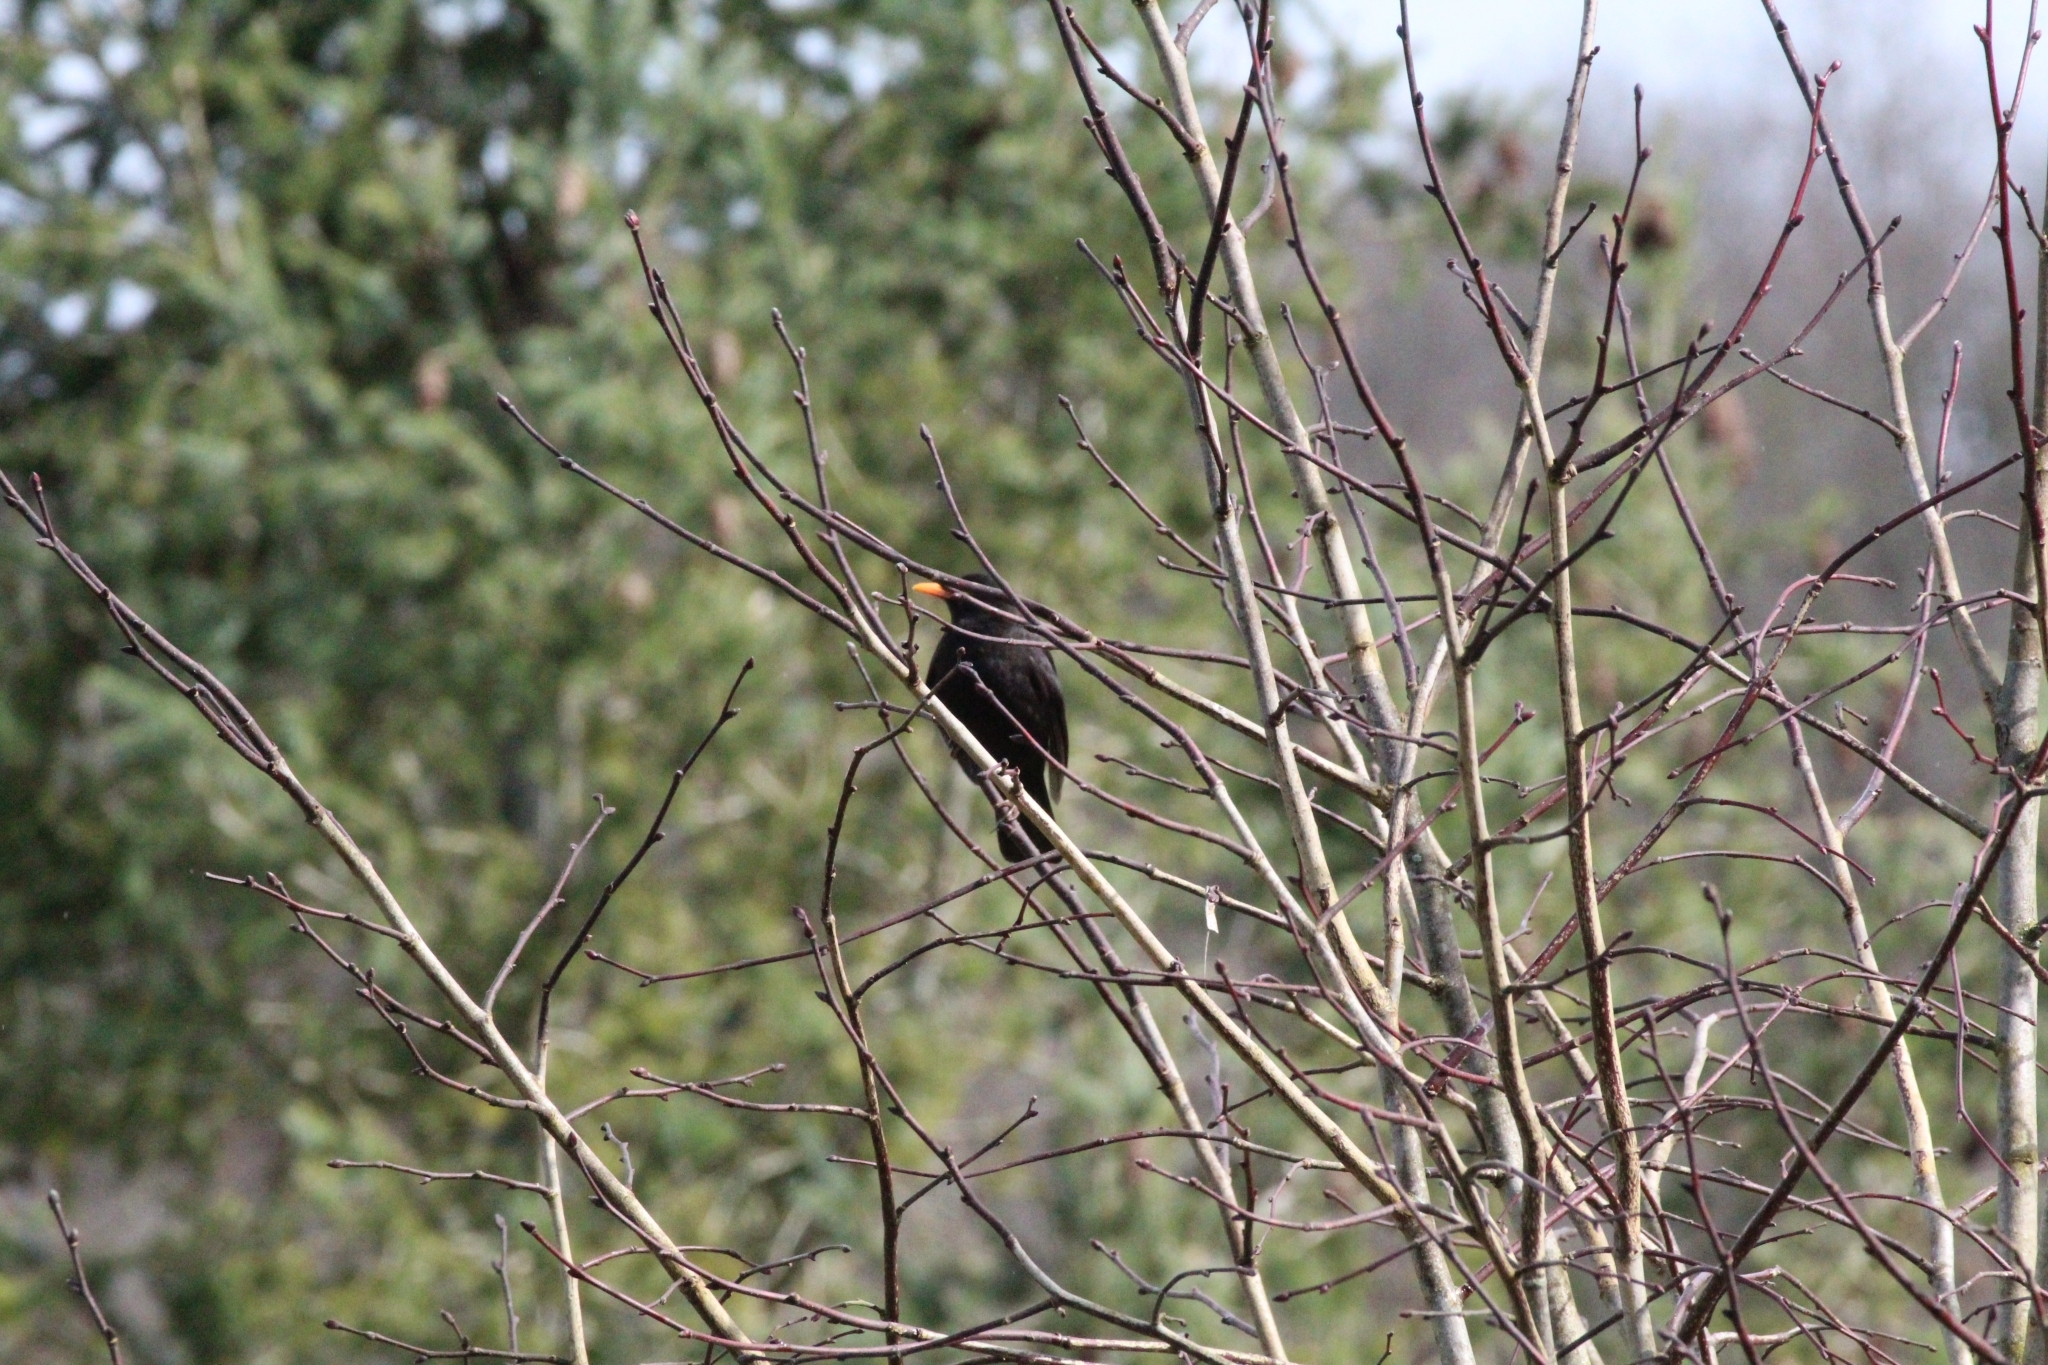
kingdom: Animalia
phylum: Chordata
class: Aves
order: Passeriformes
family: Turdidae
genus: Turdus
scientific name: Turdus merula
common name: Common blackbird
